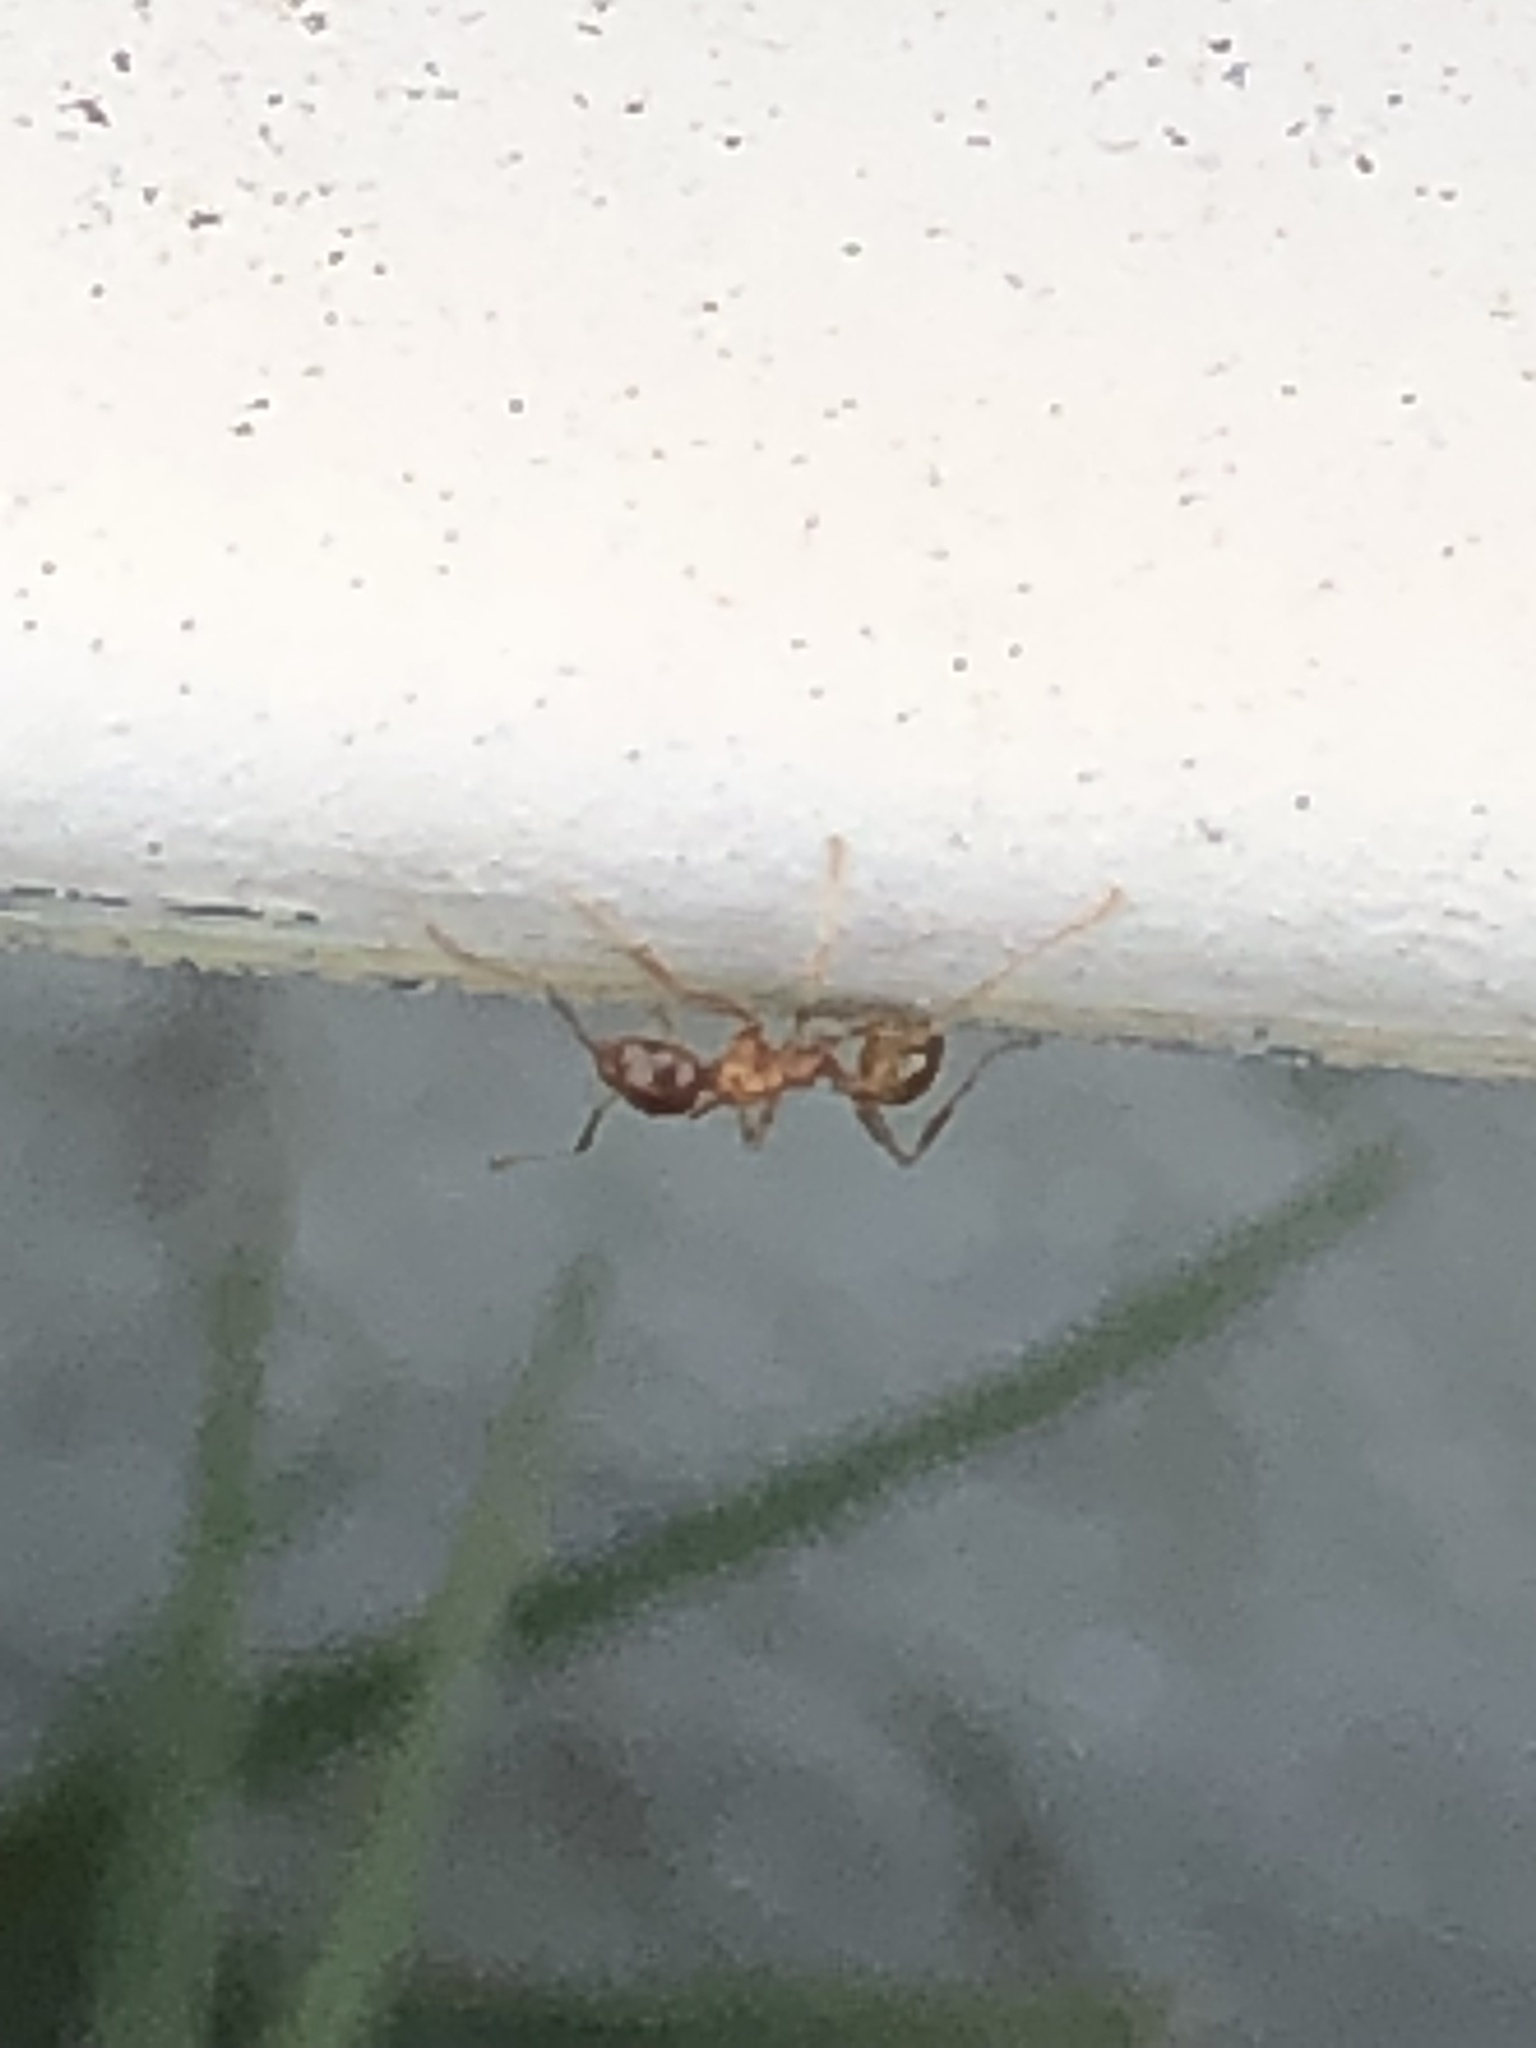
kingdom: Animalia
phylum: Arthropoda
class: Insecta
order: Hymenoptera
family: Formicidae
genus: Pheidole
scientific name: Pheidole dentata
